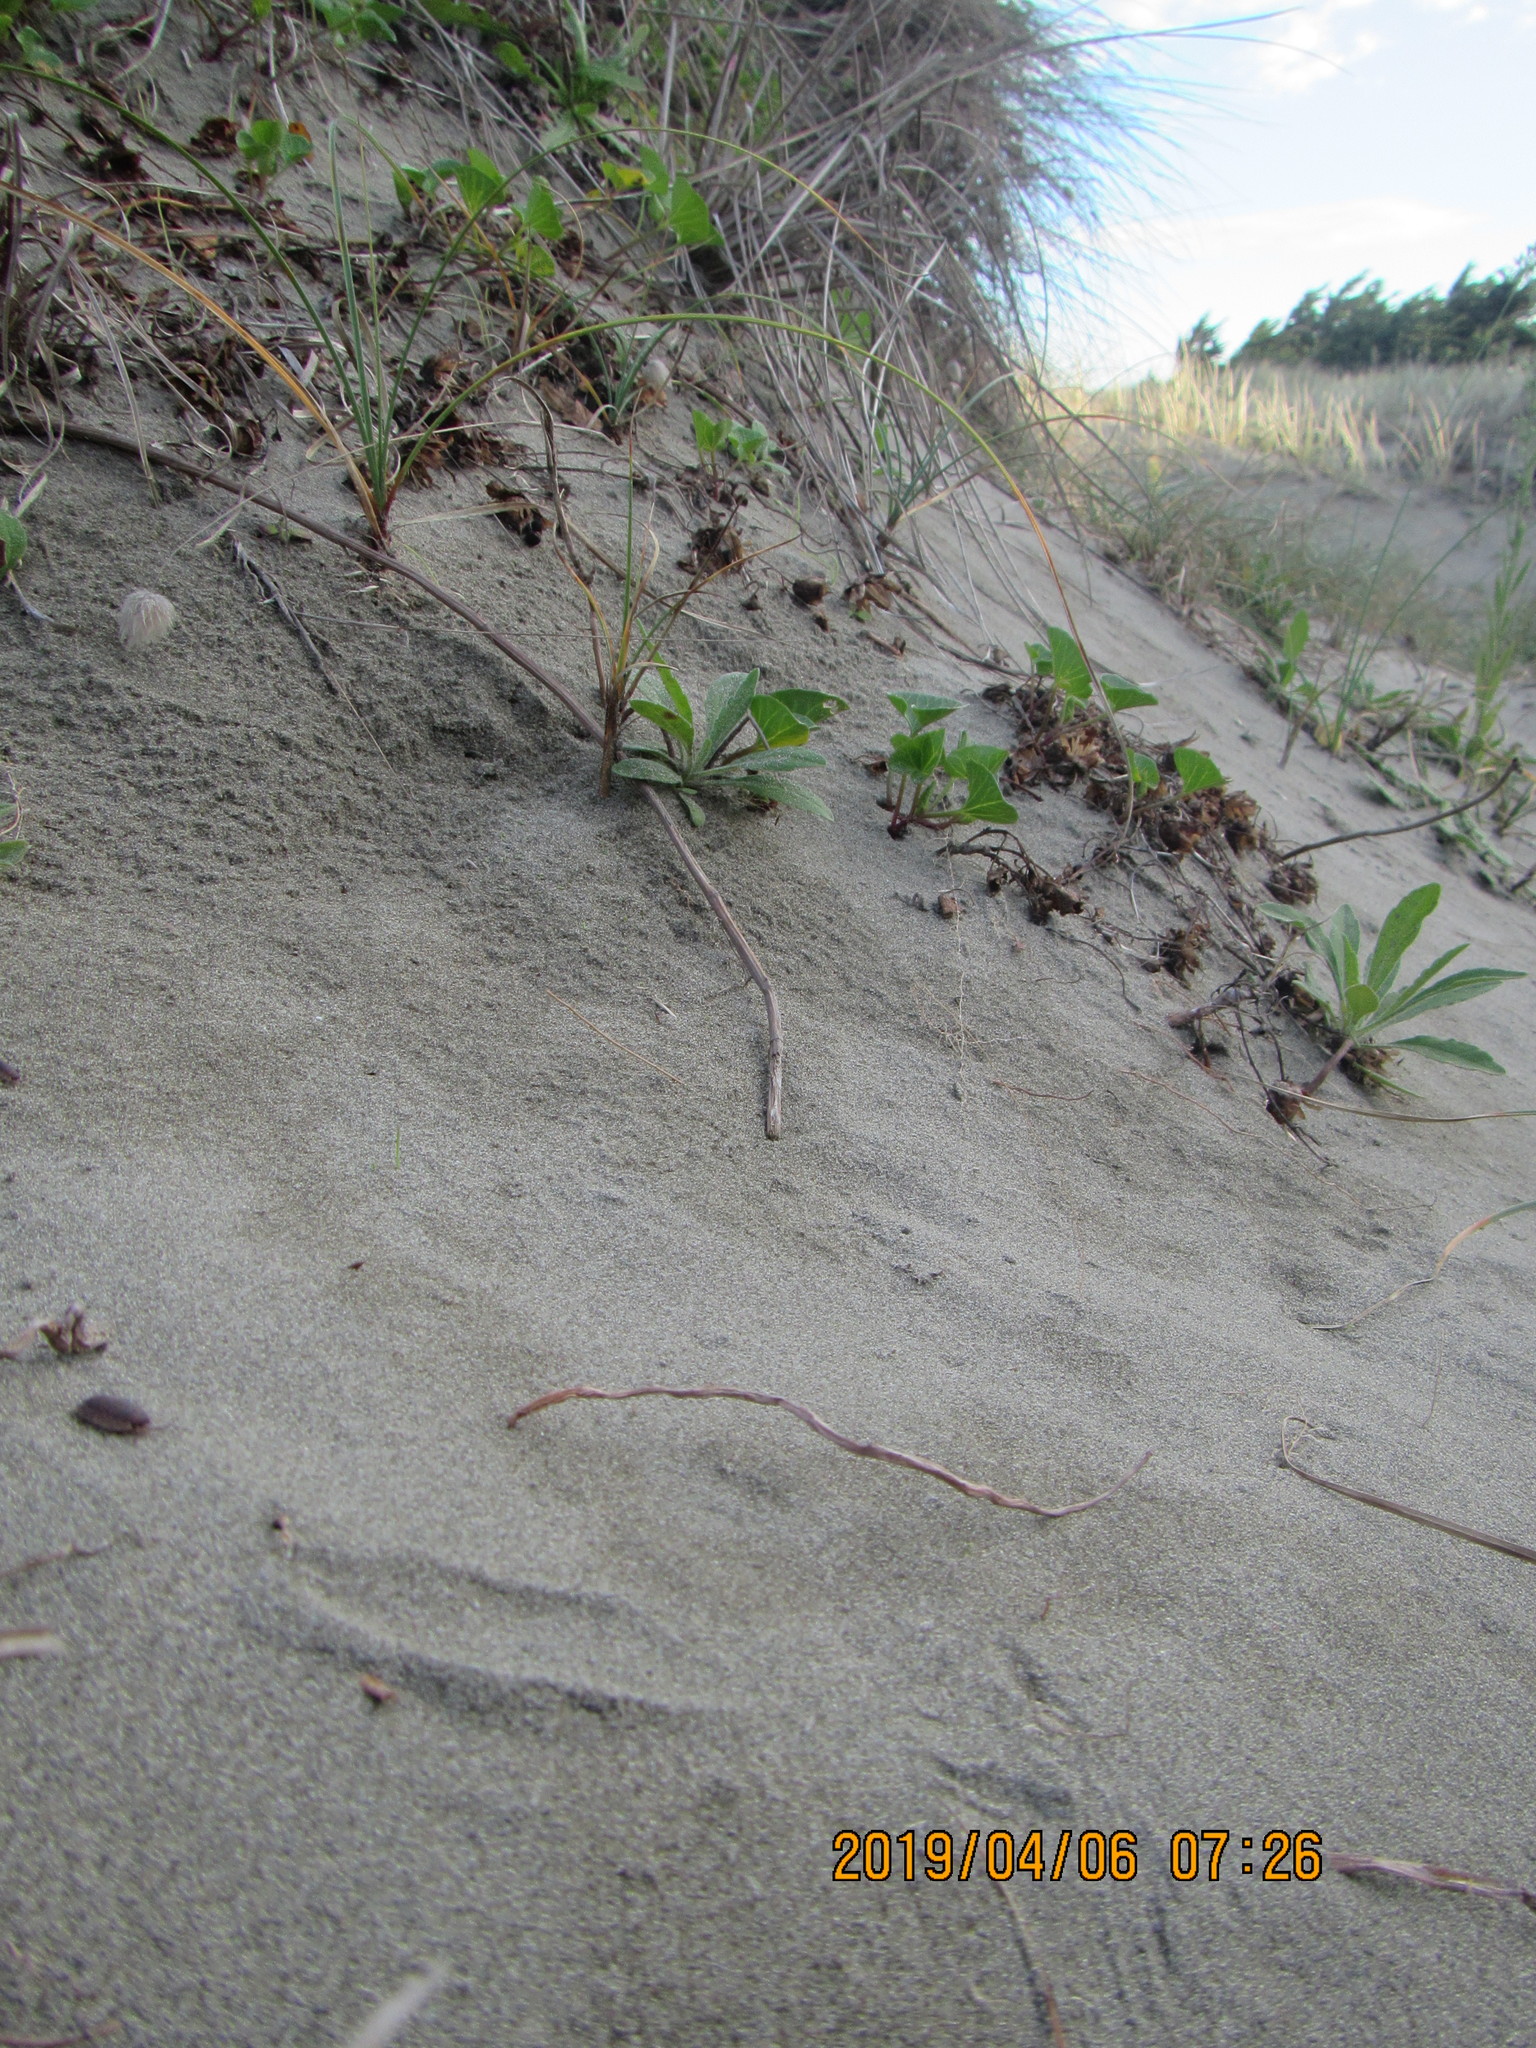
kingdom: Animalia
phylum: Arthropoda
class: Malacostraca
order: Isopoda
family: Porcellionidae
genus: Porcellio
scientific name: Porcellio scaber
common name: Common rough woodlouse
